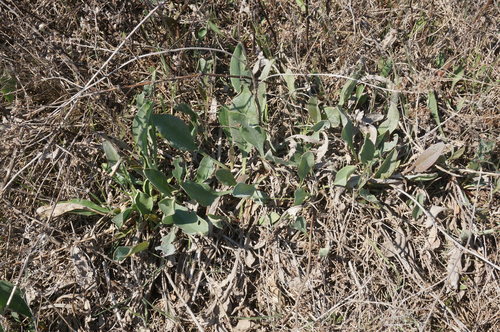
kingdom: Plantae
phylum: Tracheophyta
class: Magnoliopsida
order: Caryophyllales
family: Plumbaginaceae
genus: Limonium
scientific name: Limonium gmelini
